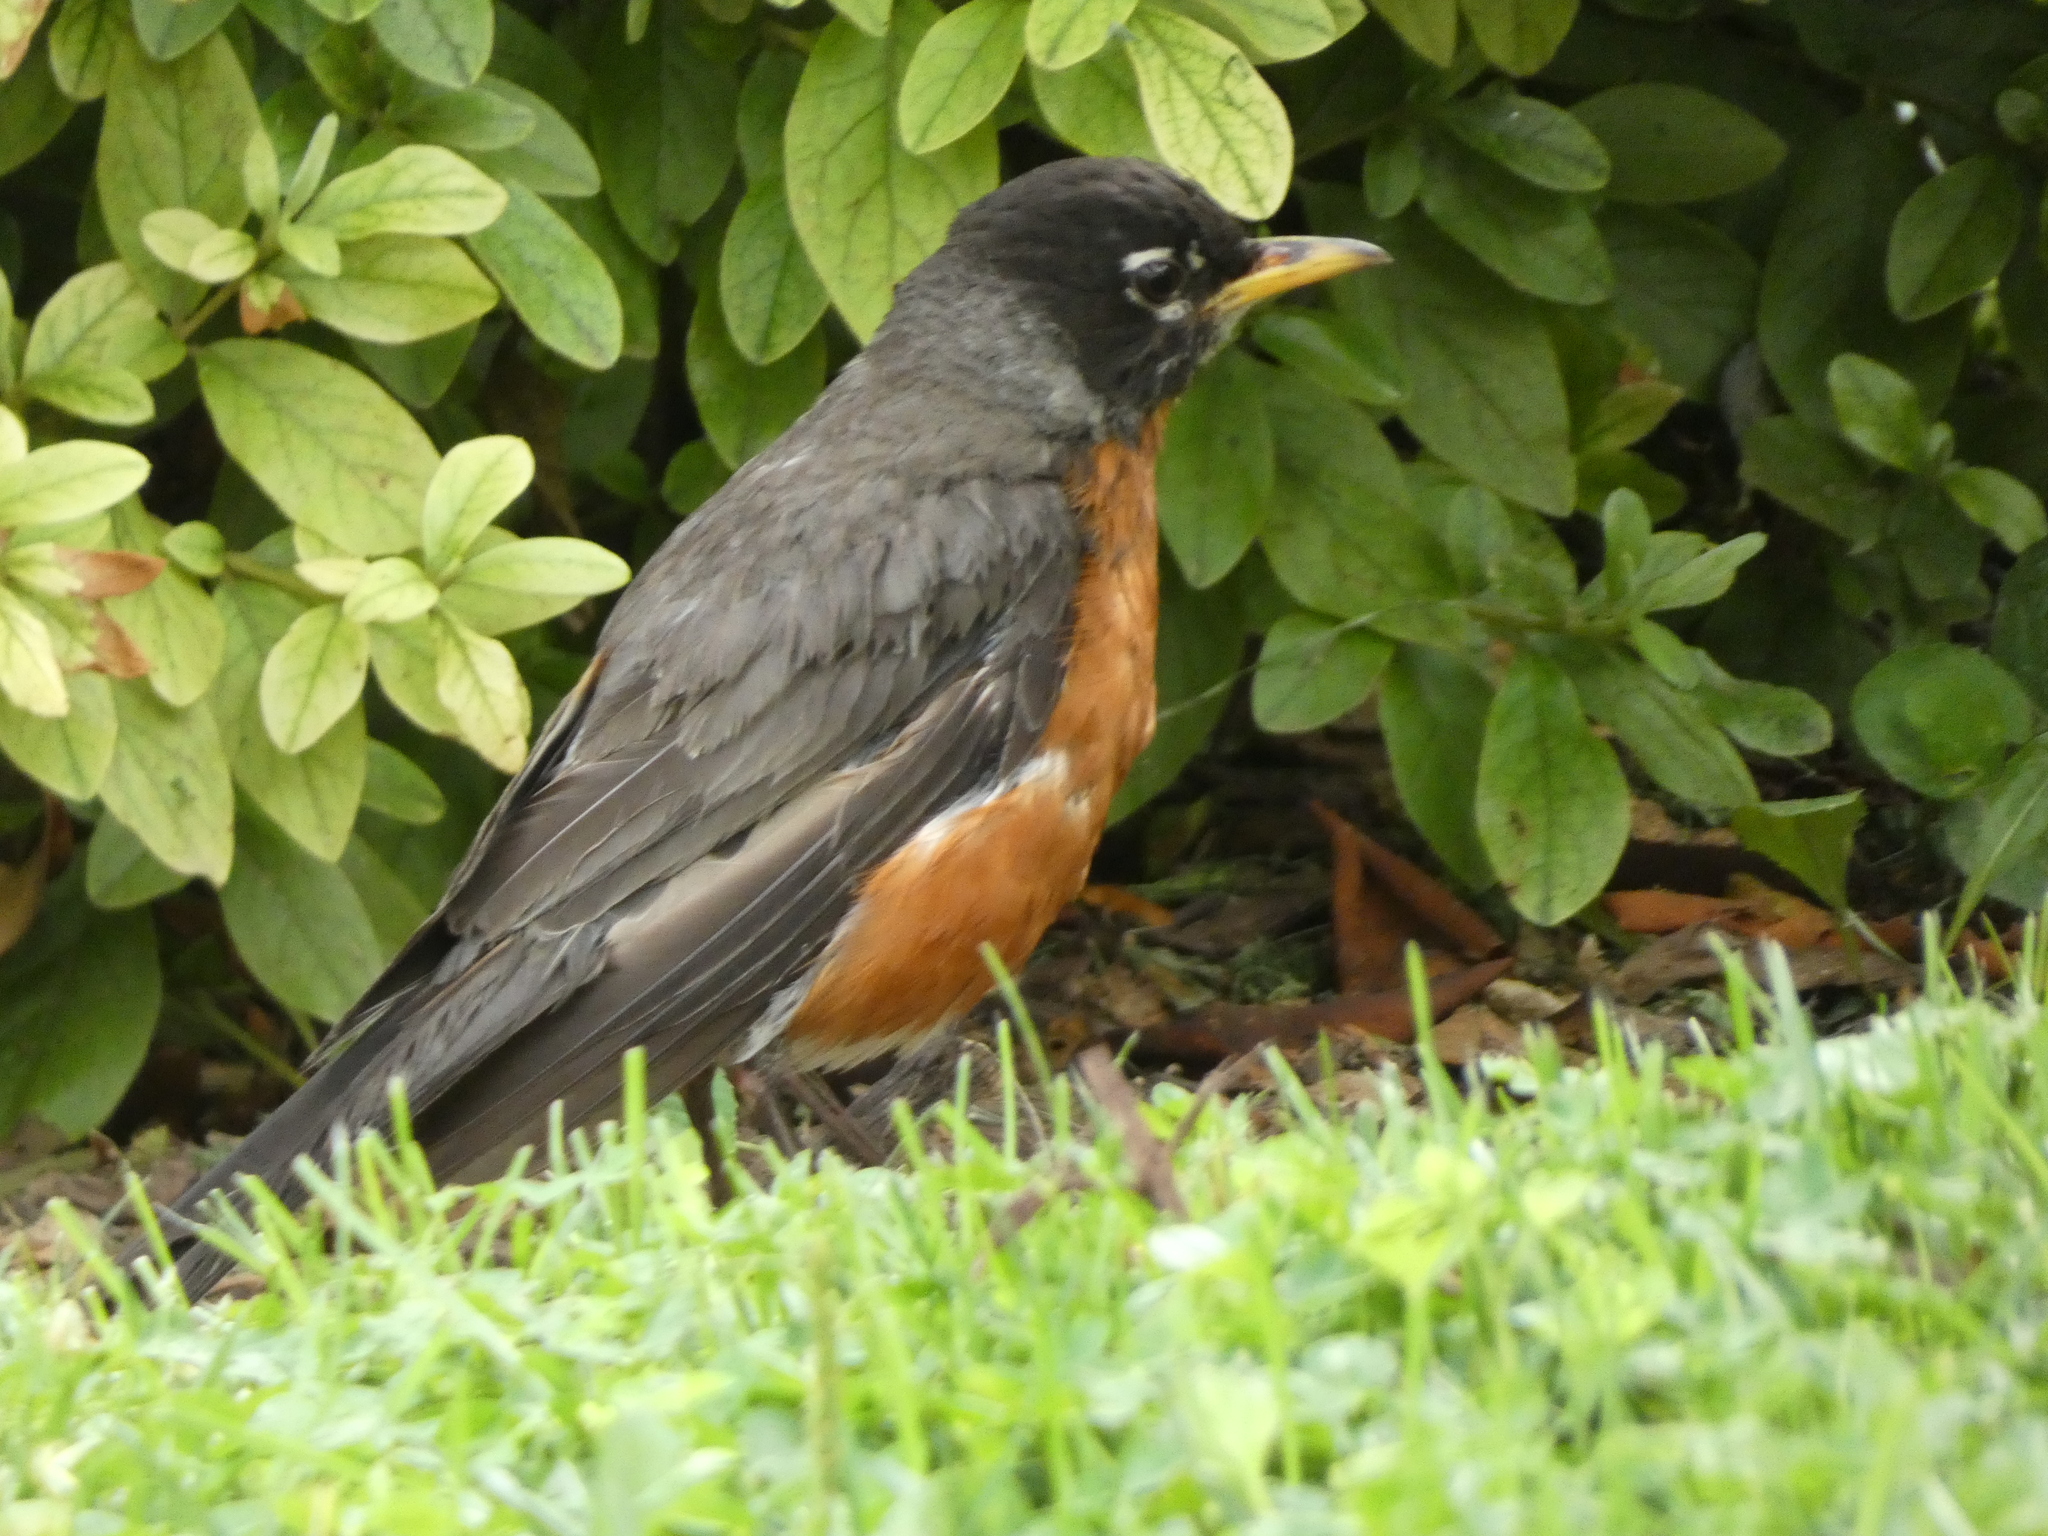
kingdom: Animalia
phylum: Chordata
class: Aves
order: Passeriformes
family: Turdidae
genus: Turdus
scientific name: Turdus migratorius
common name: American robin
